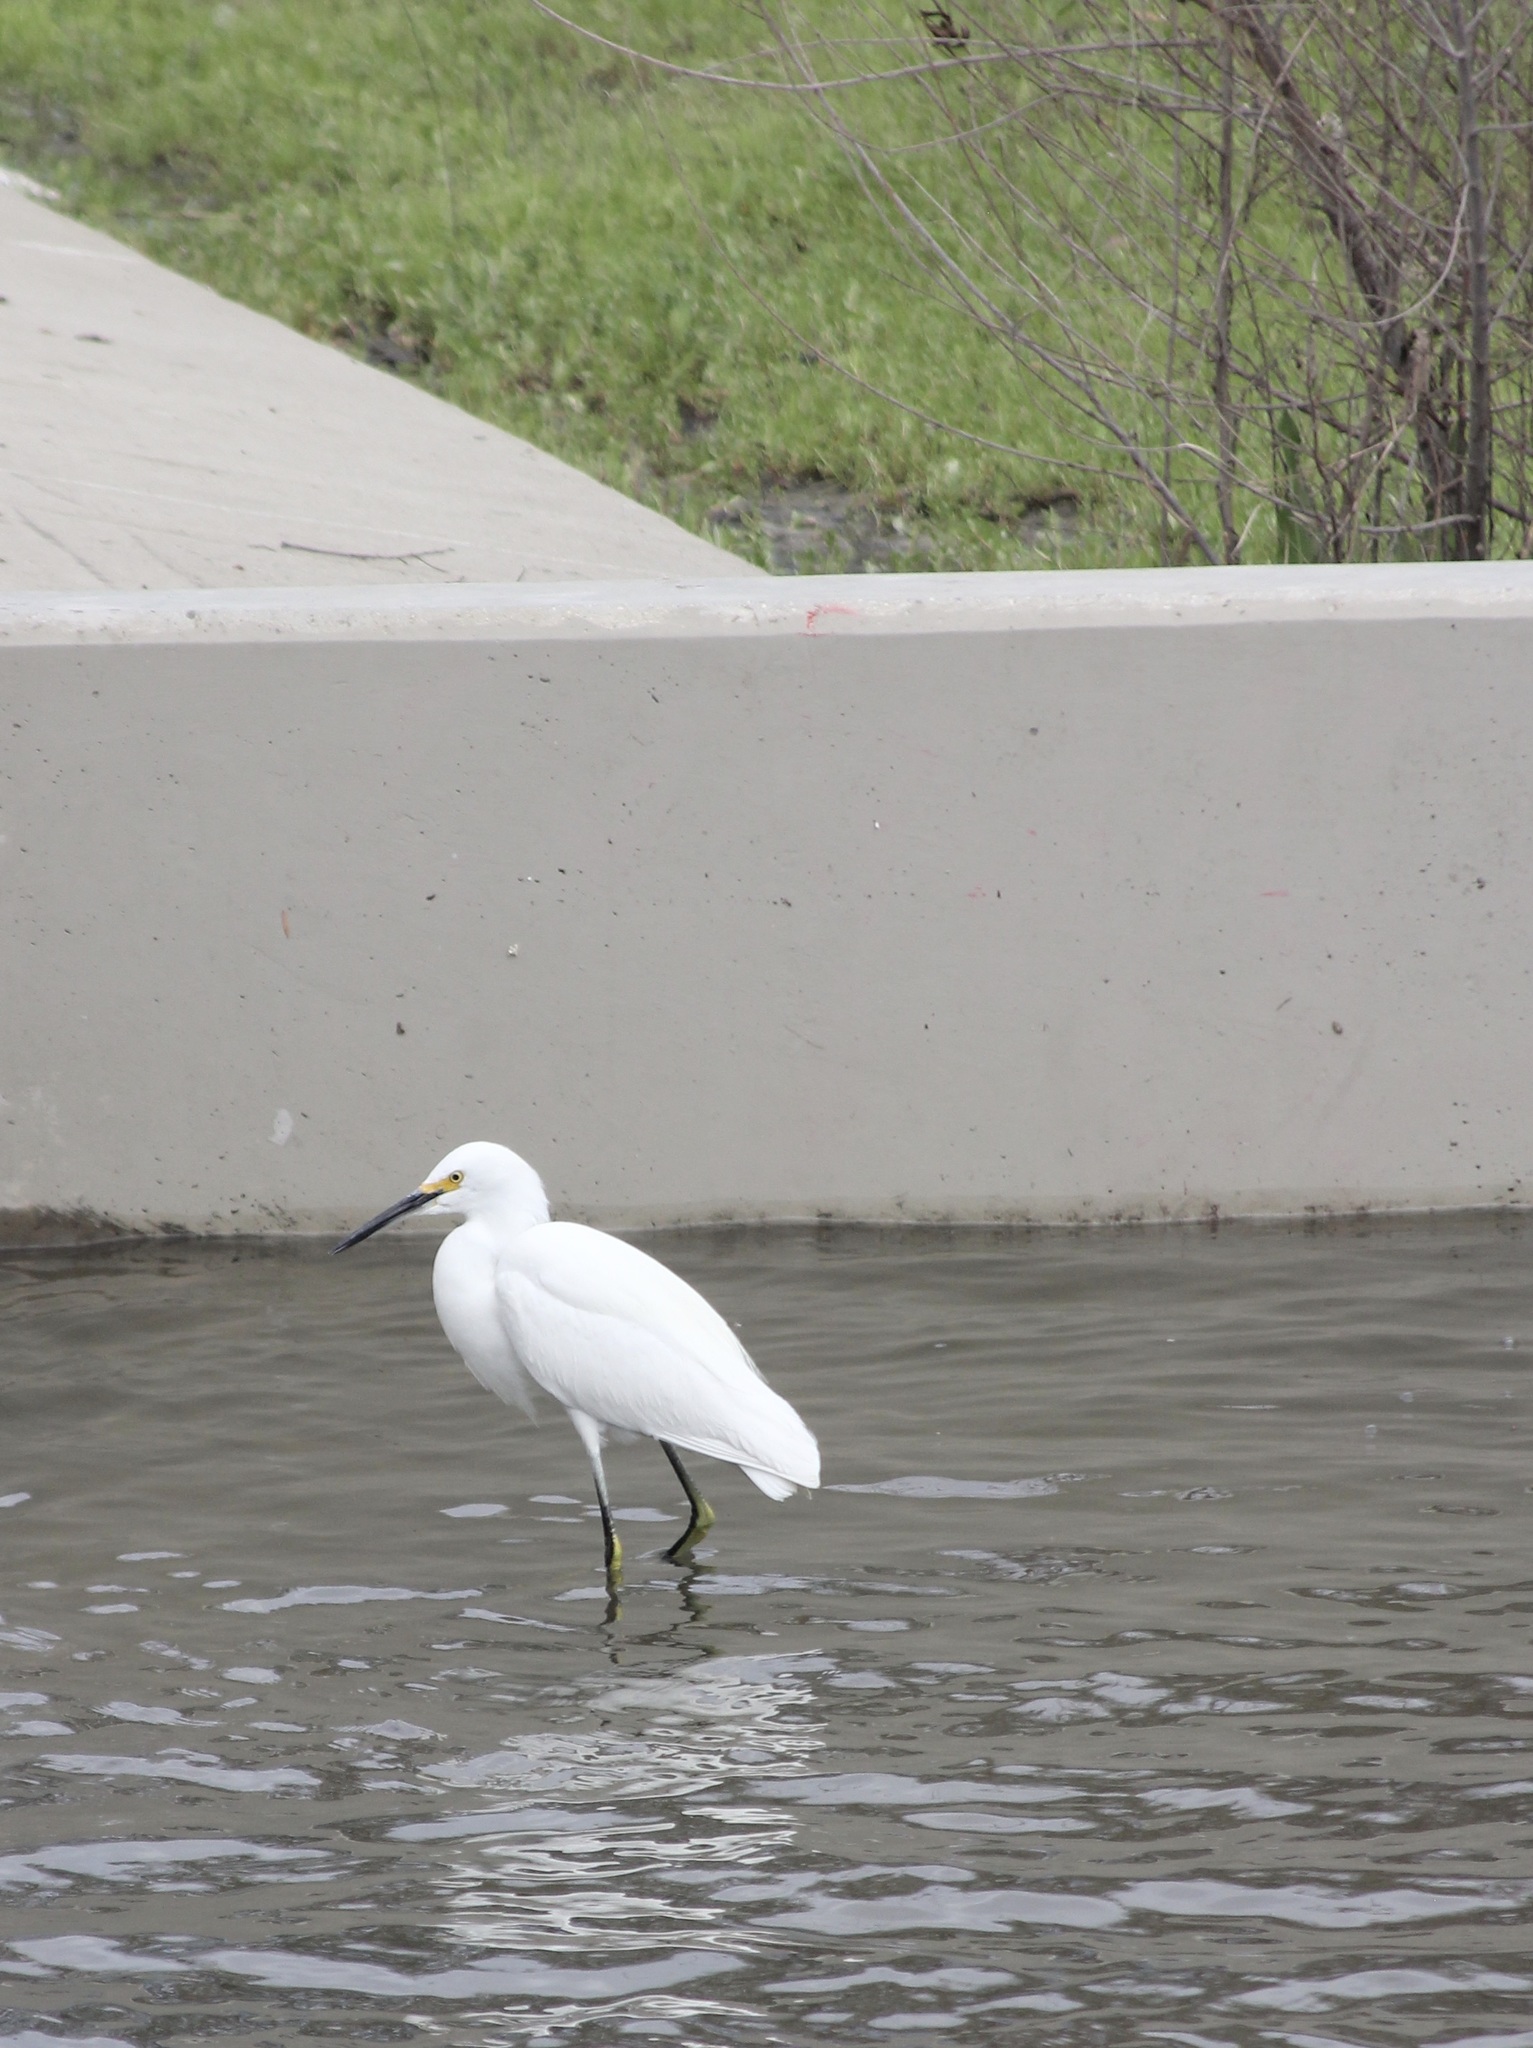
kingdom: Animalia
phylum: Chordata
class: Aves
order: Pelecaniformes
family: Ardeidae
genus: Egretta
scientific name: Egretta thula
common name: Snowy egret
